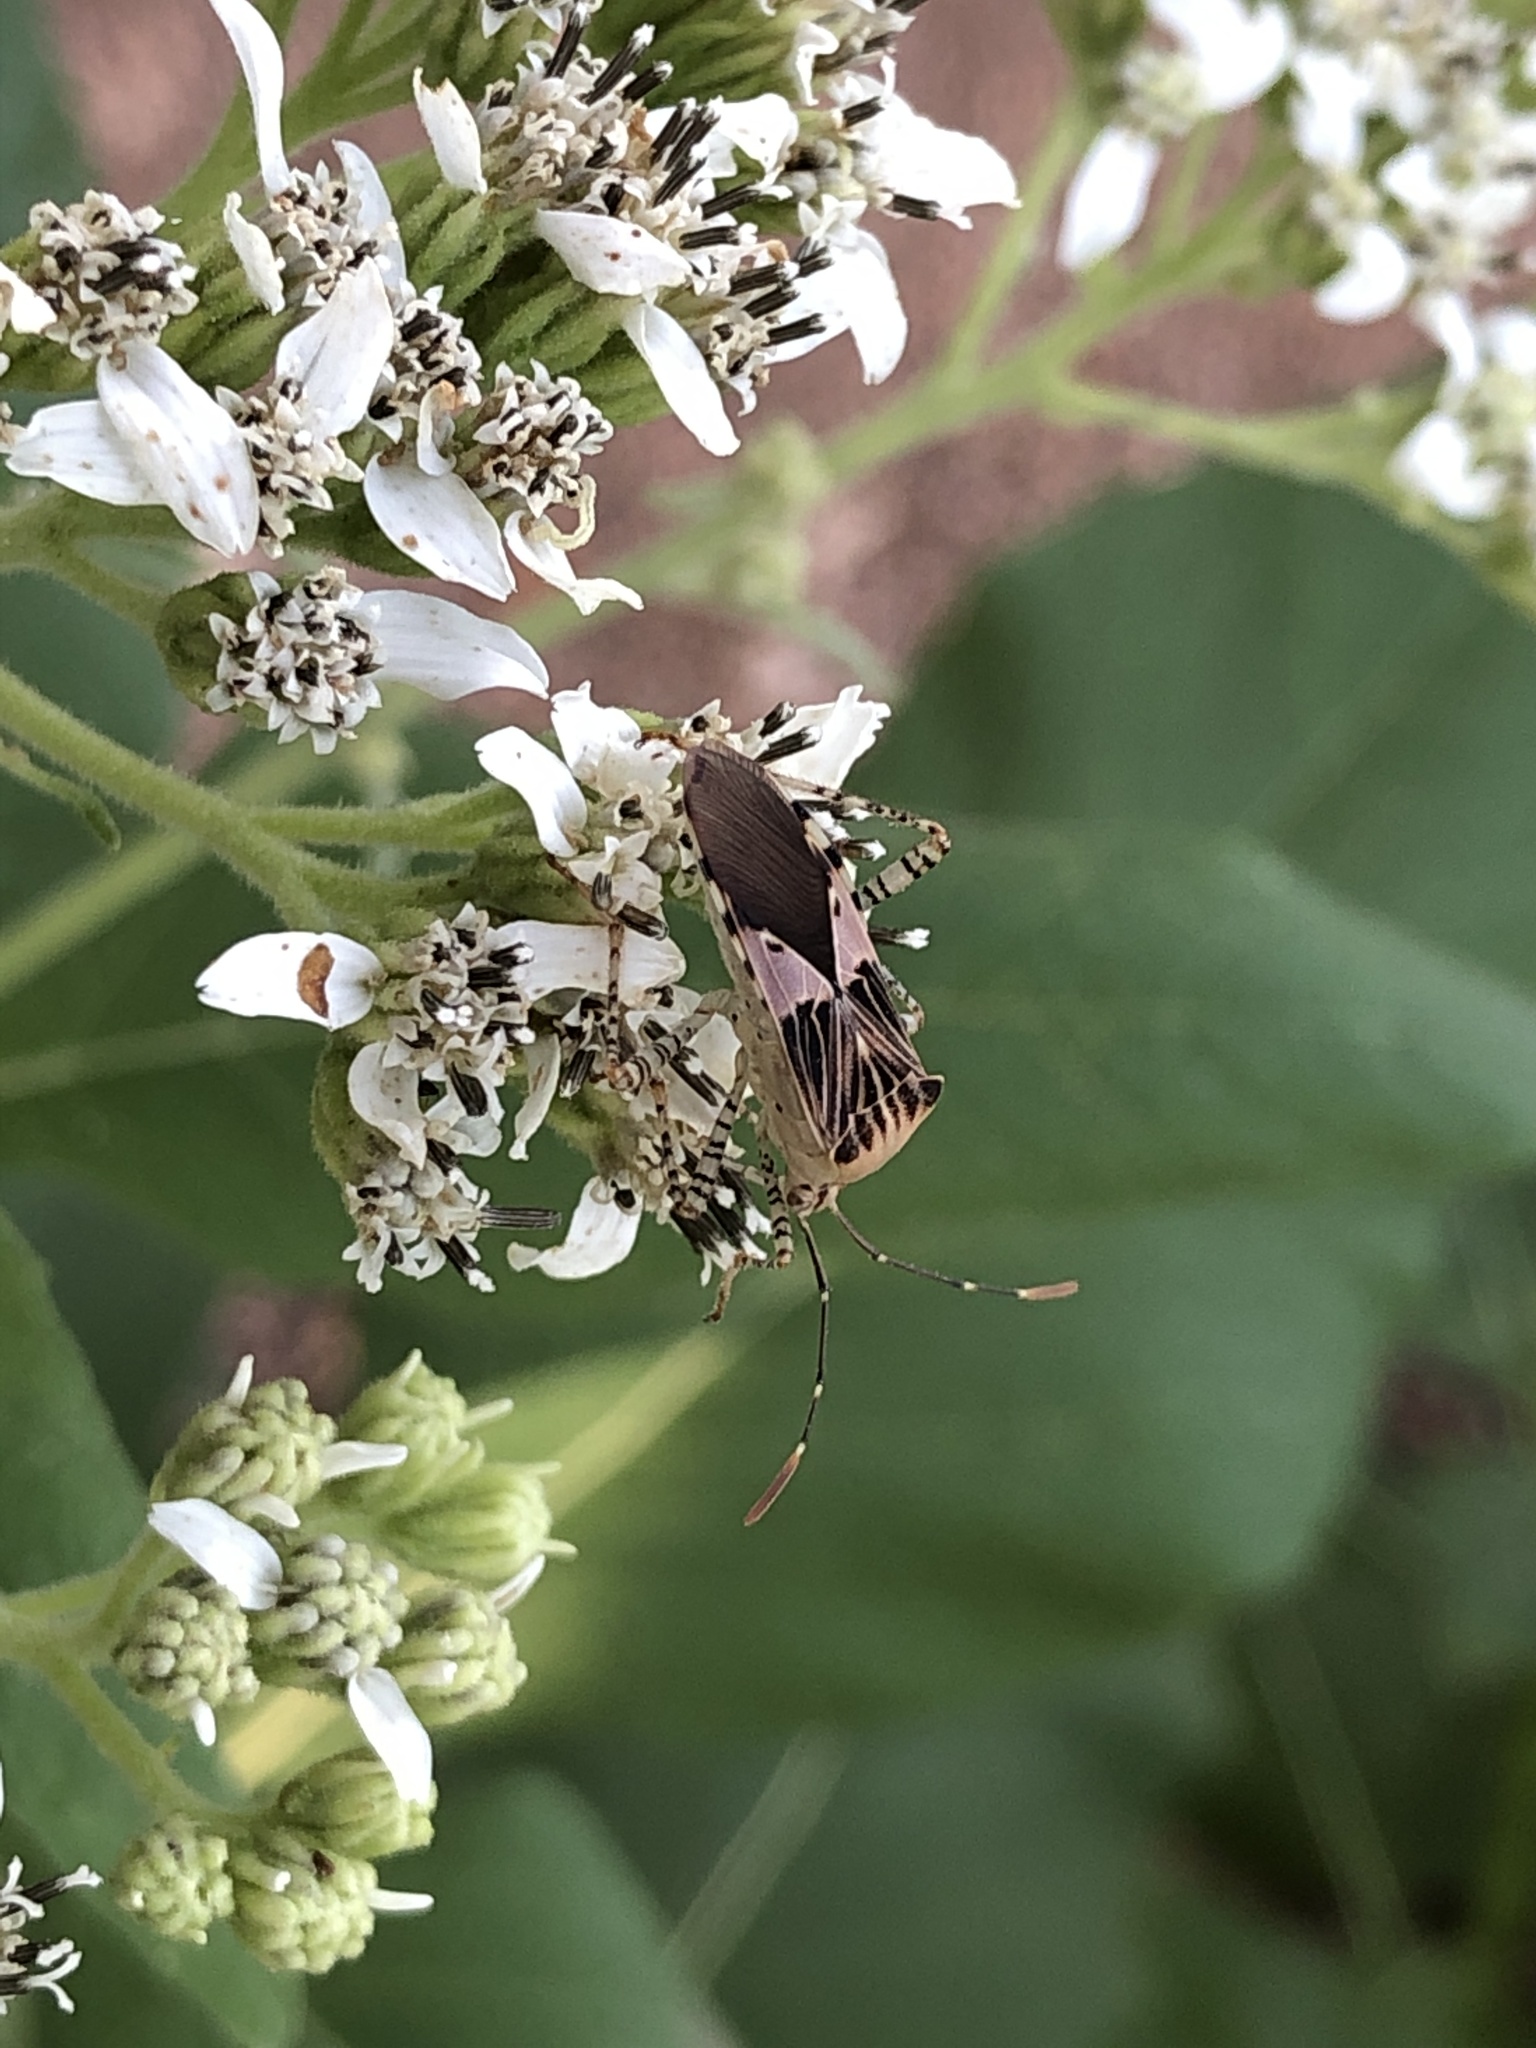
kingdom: Animalia
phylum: Arthropoda
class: Insecta
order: Hemiptera
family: Coreidae
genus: Hypselonotus
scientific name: Hypselonotus punctiventris
